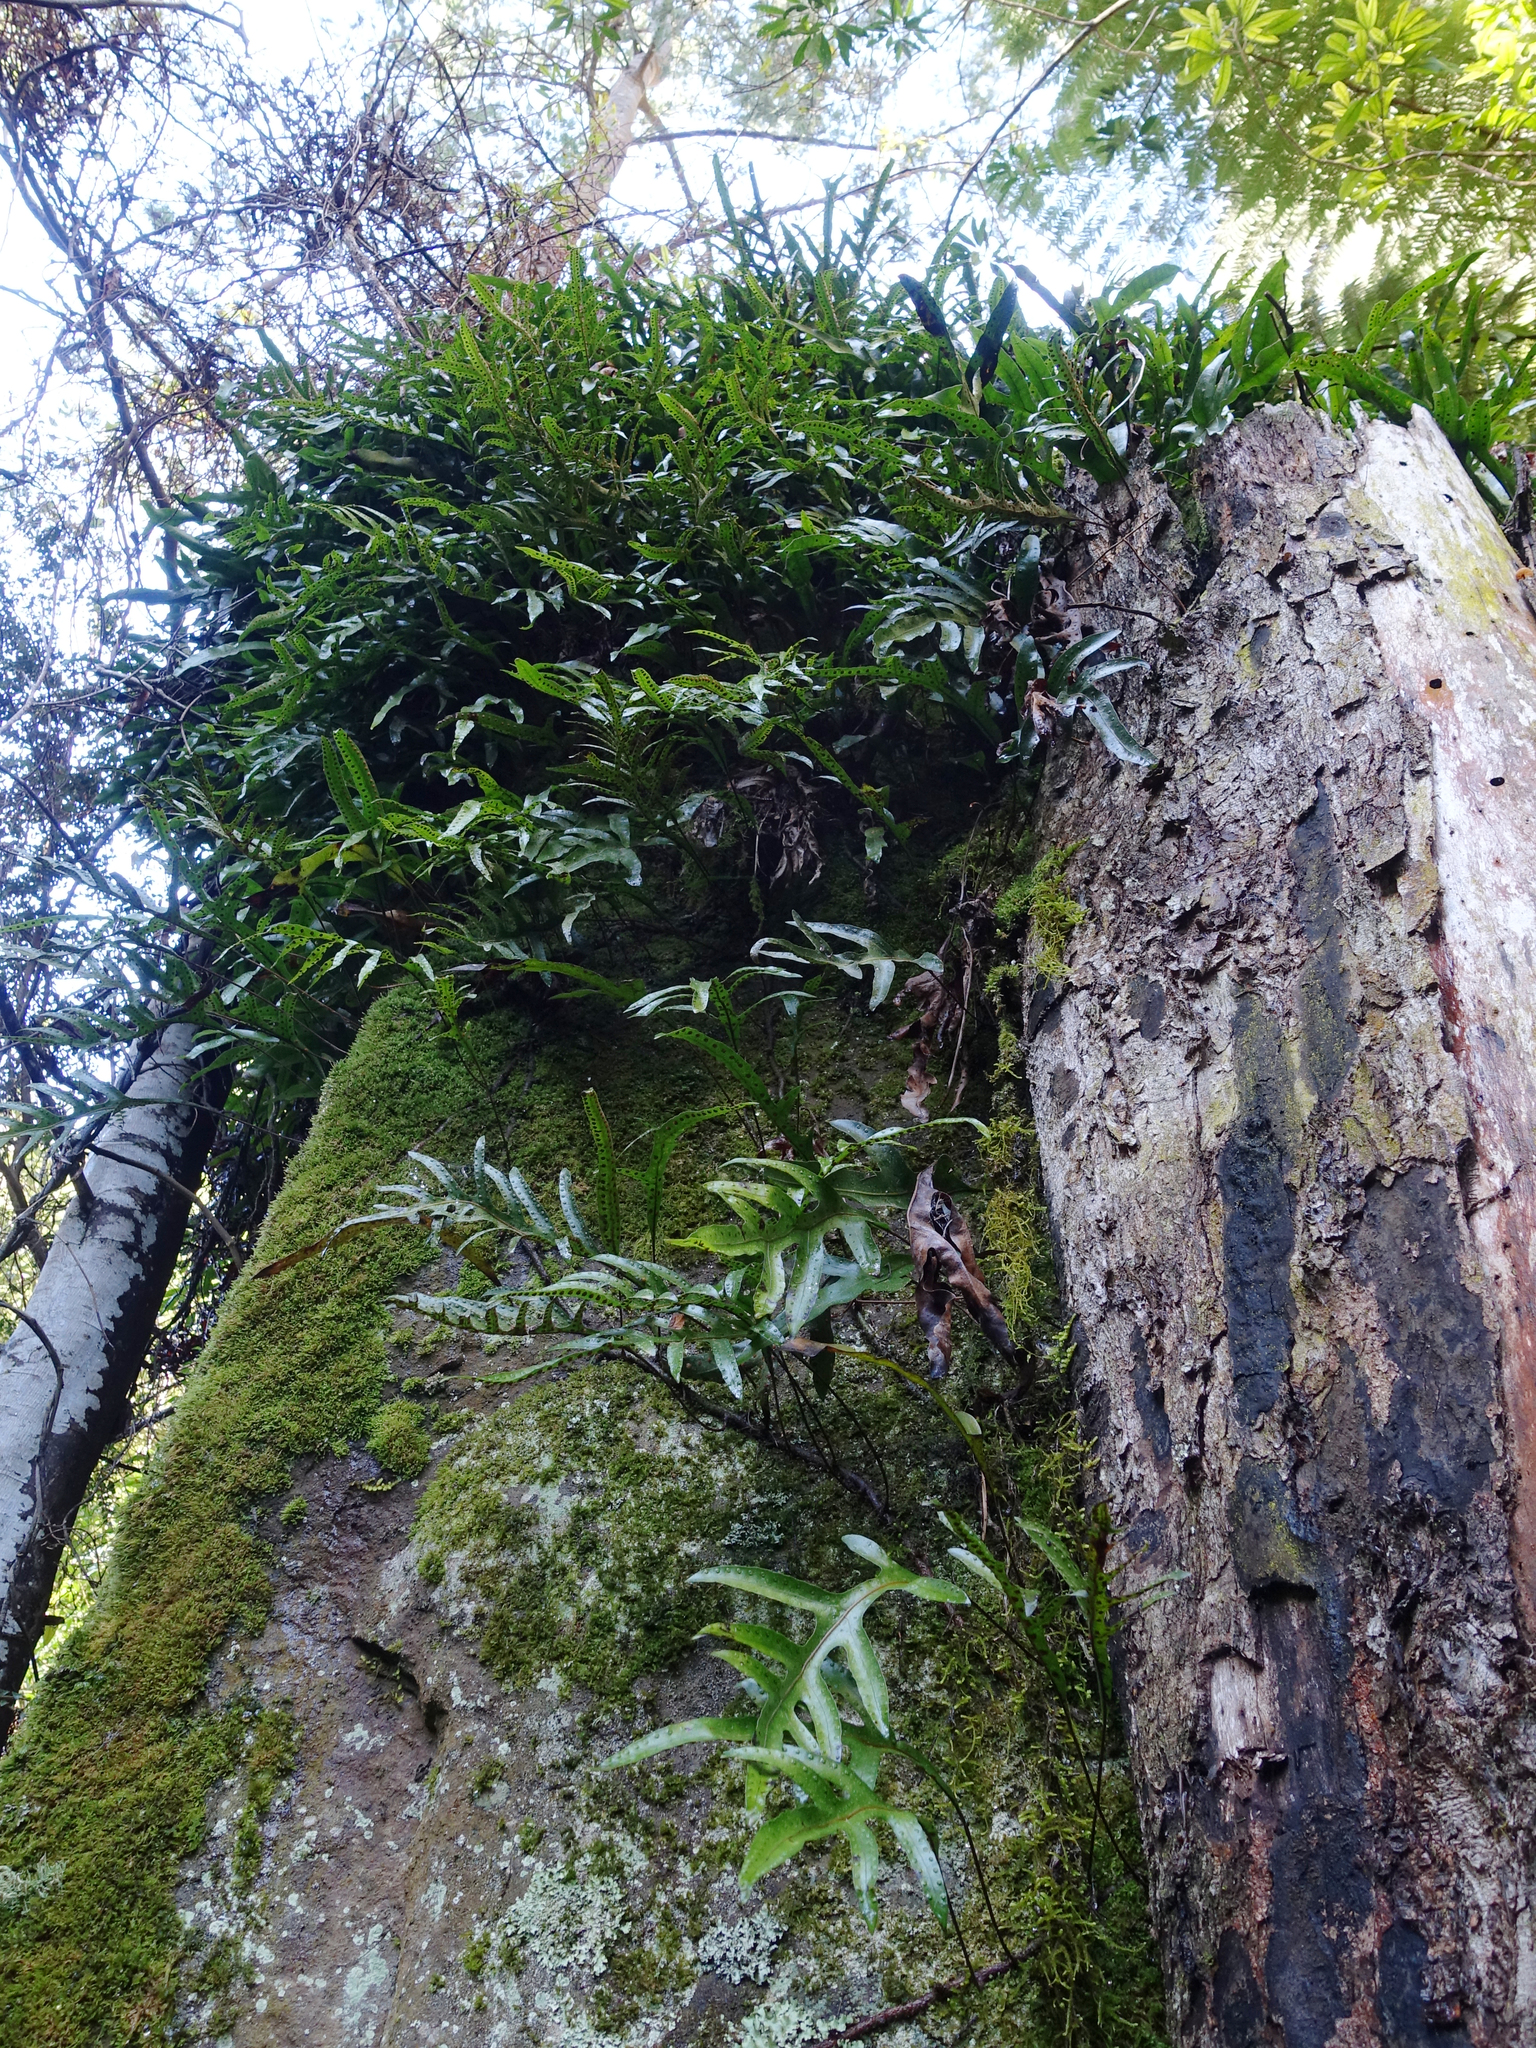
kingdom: Plantae
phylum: Tracheophyta
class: Polypodiopsida
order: Polypodiales
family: Polypodiaceae
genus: Lecanopteris
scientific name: Lecanopteris pustulata
